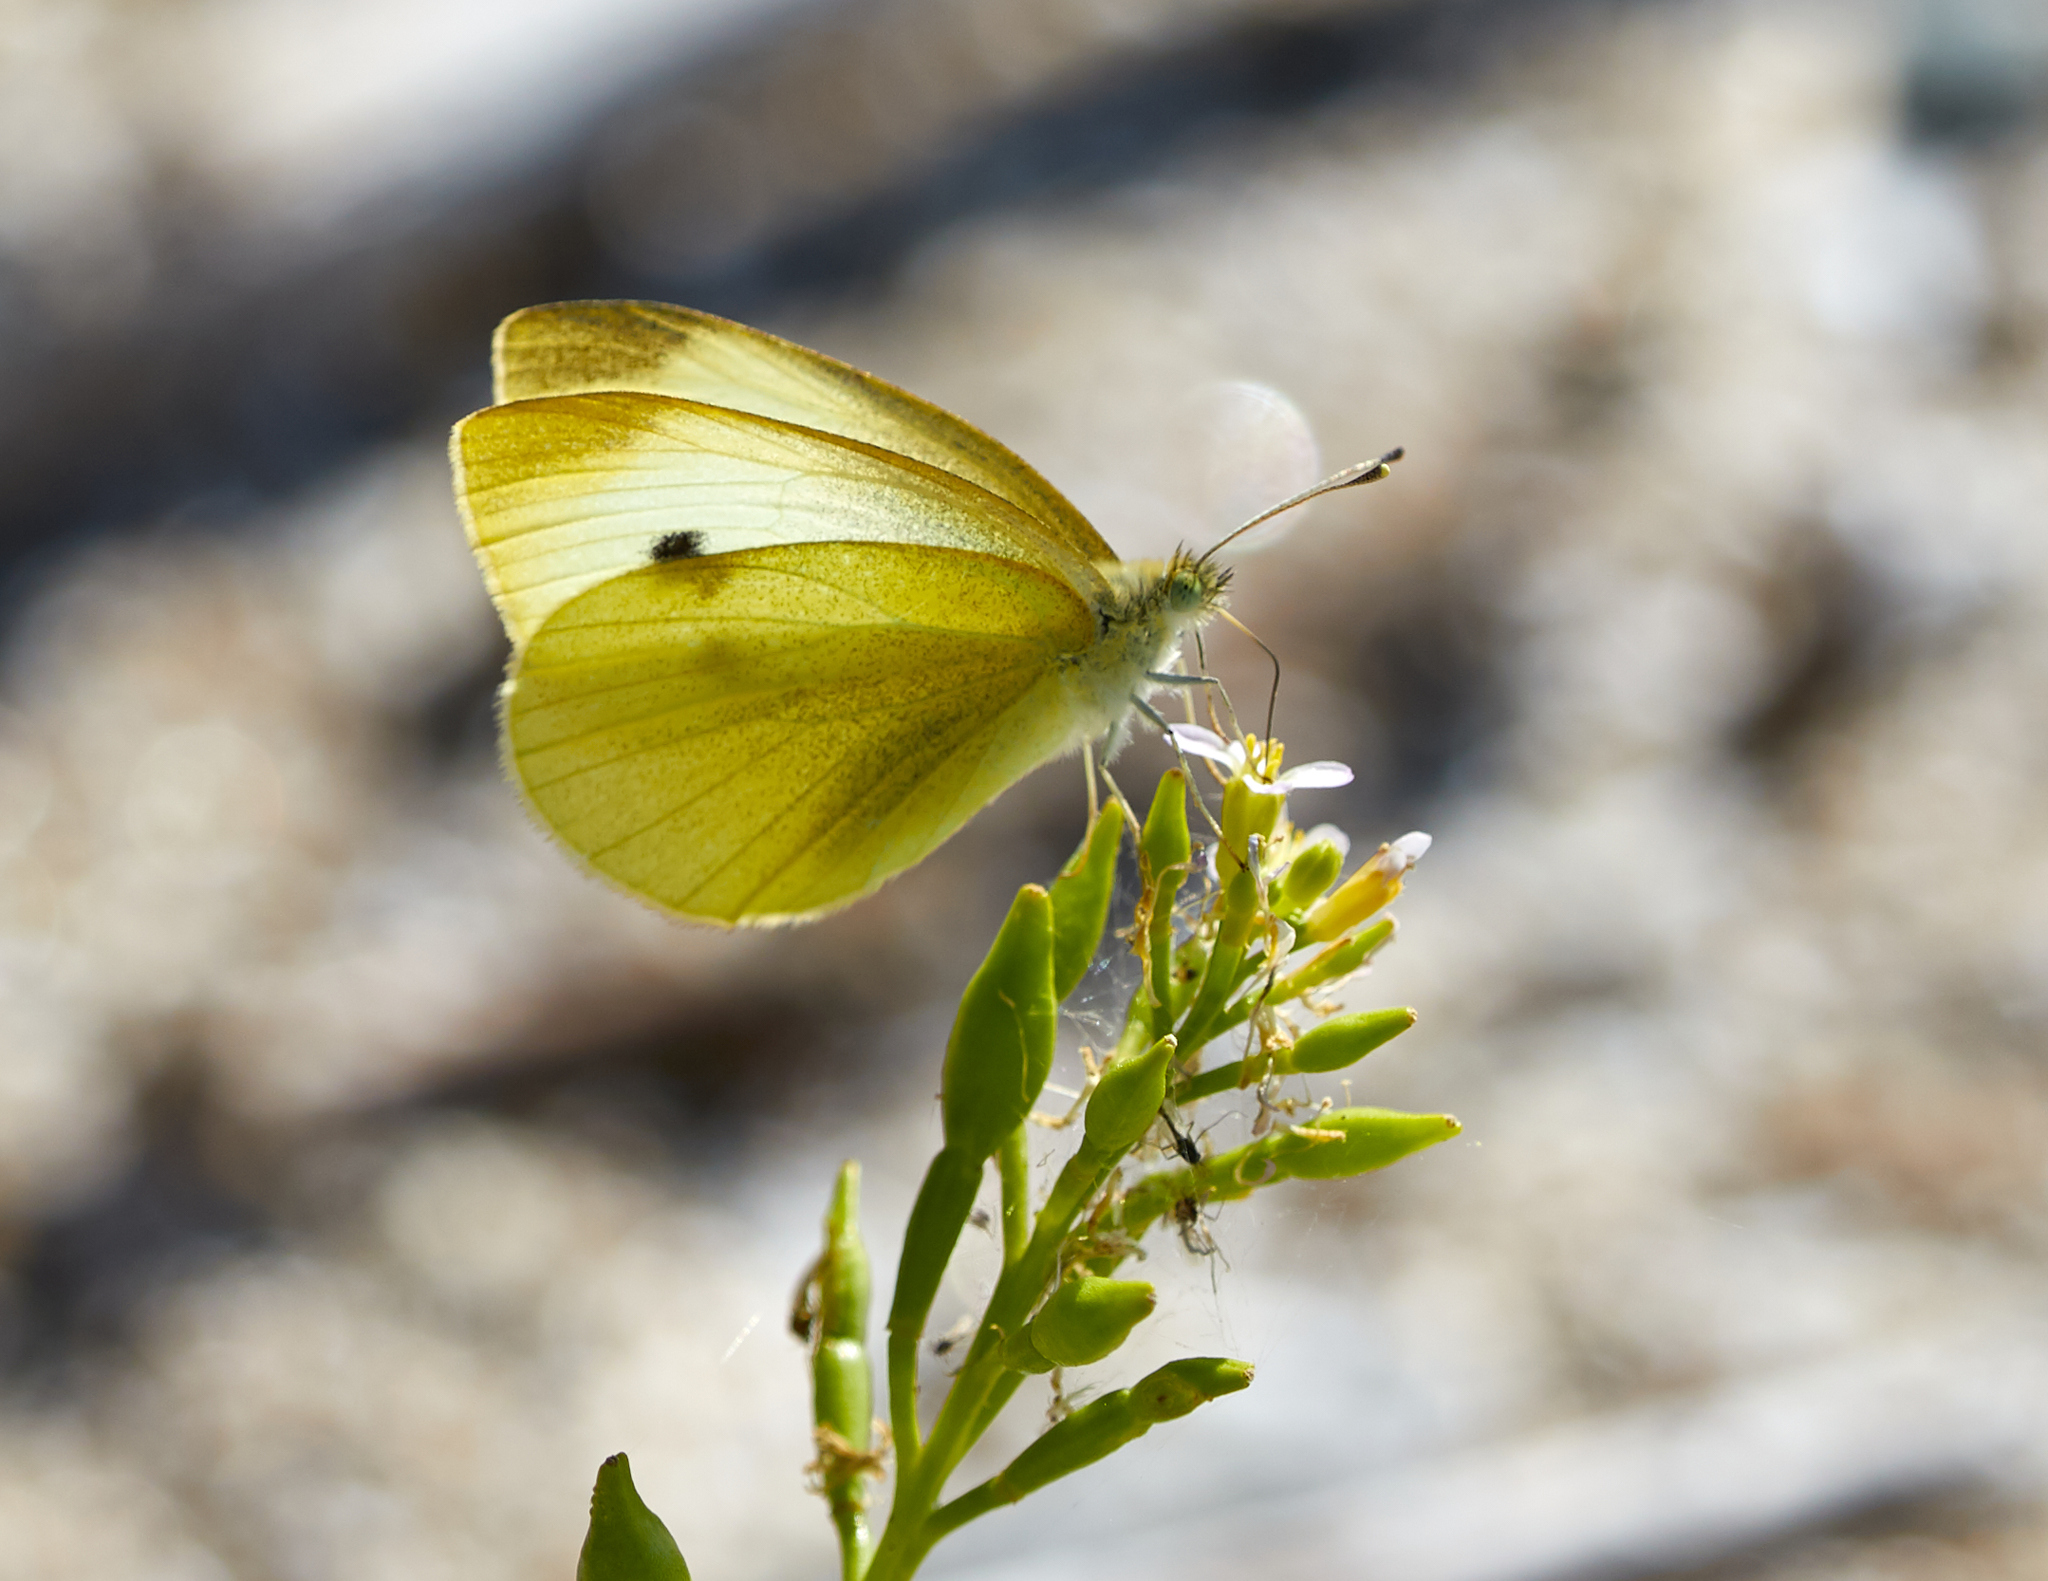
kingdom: Animalia
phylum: Arthropoda
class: Insecta
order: Lepidoptera
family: Pieridae
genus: Pieris
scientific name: Pieris rapae
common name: Small white
